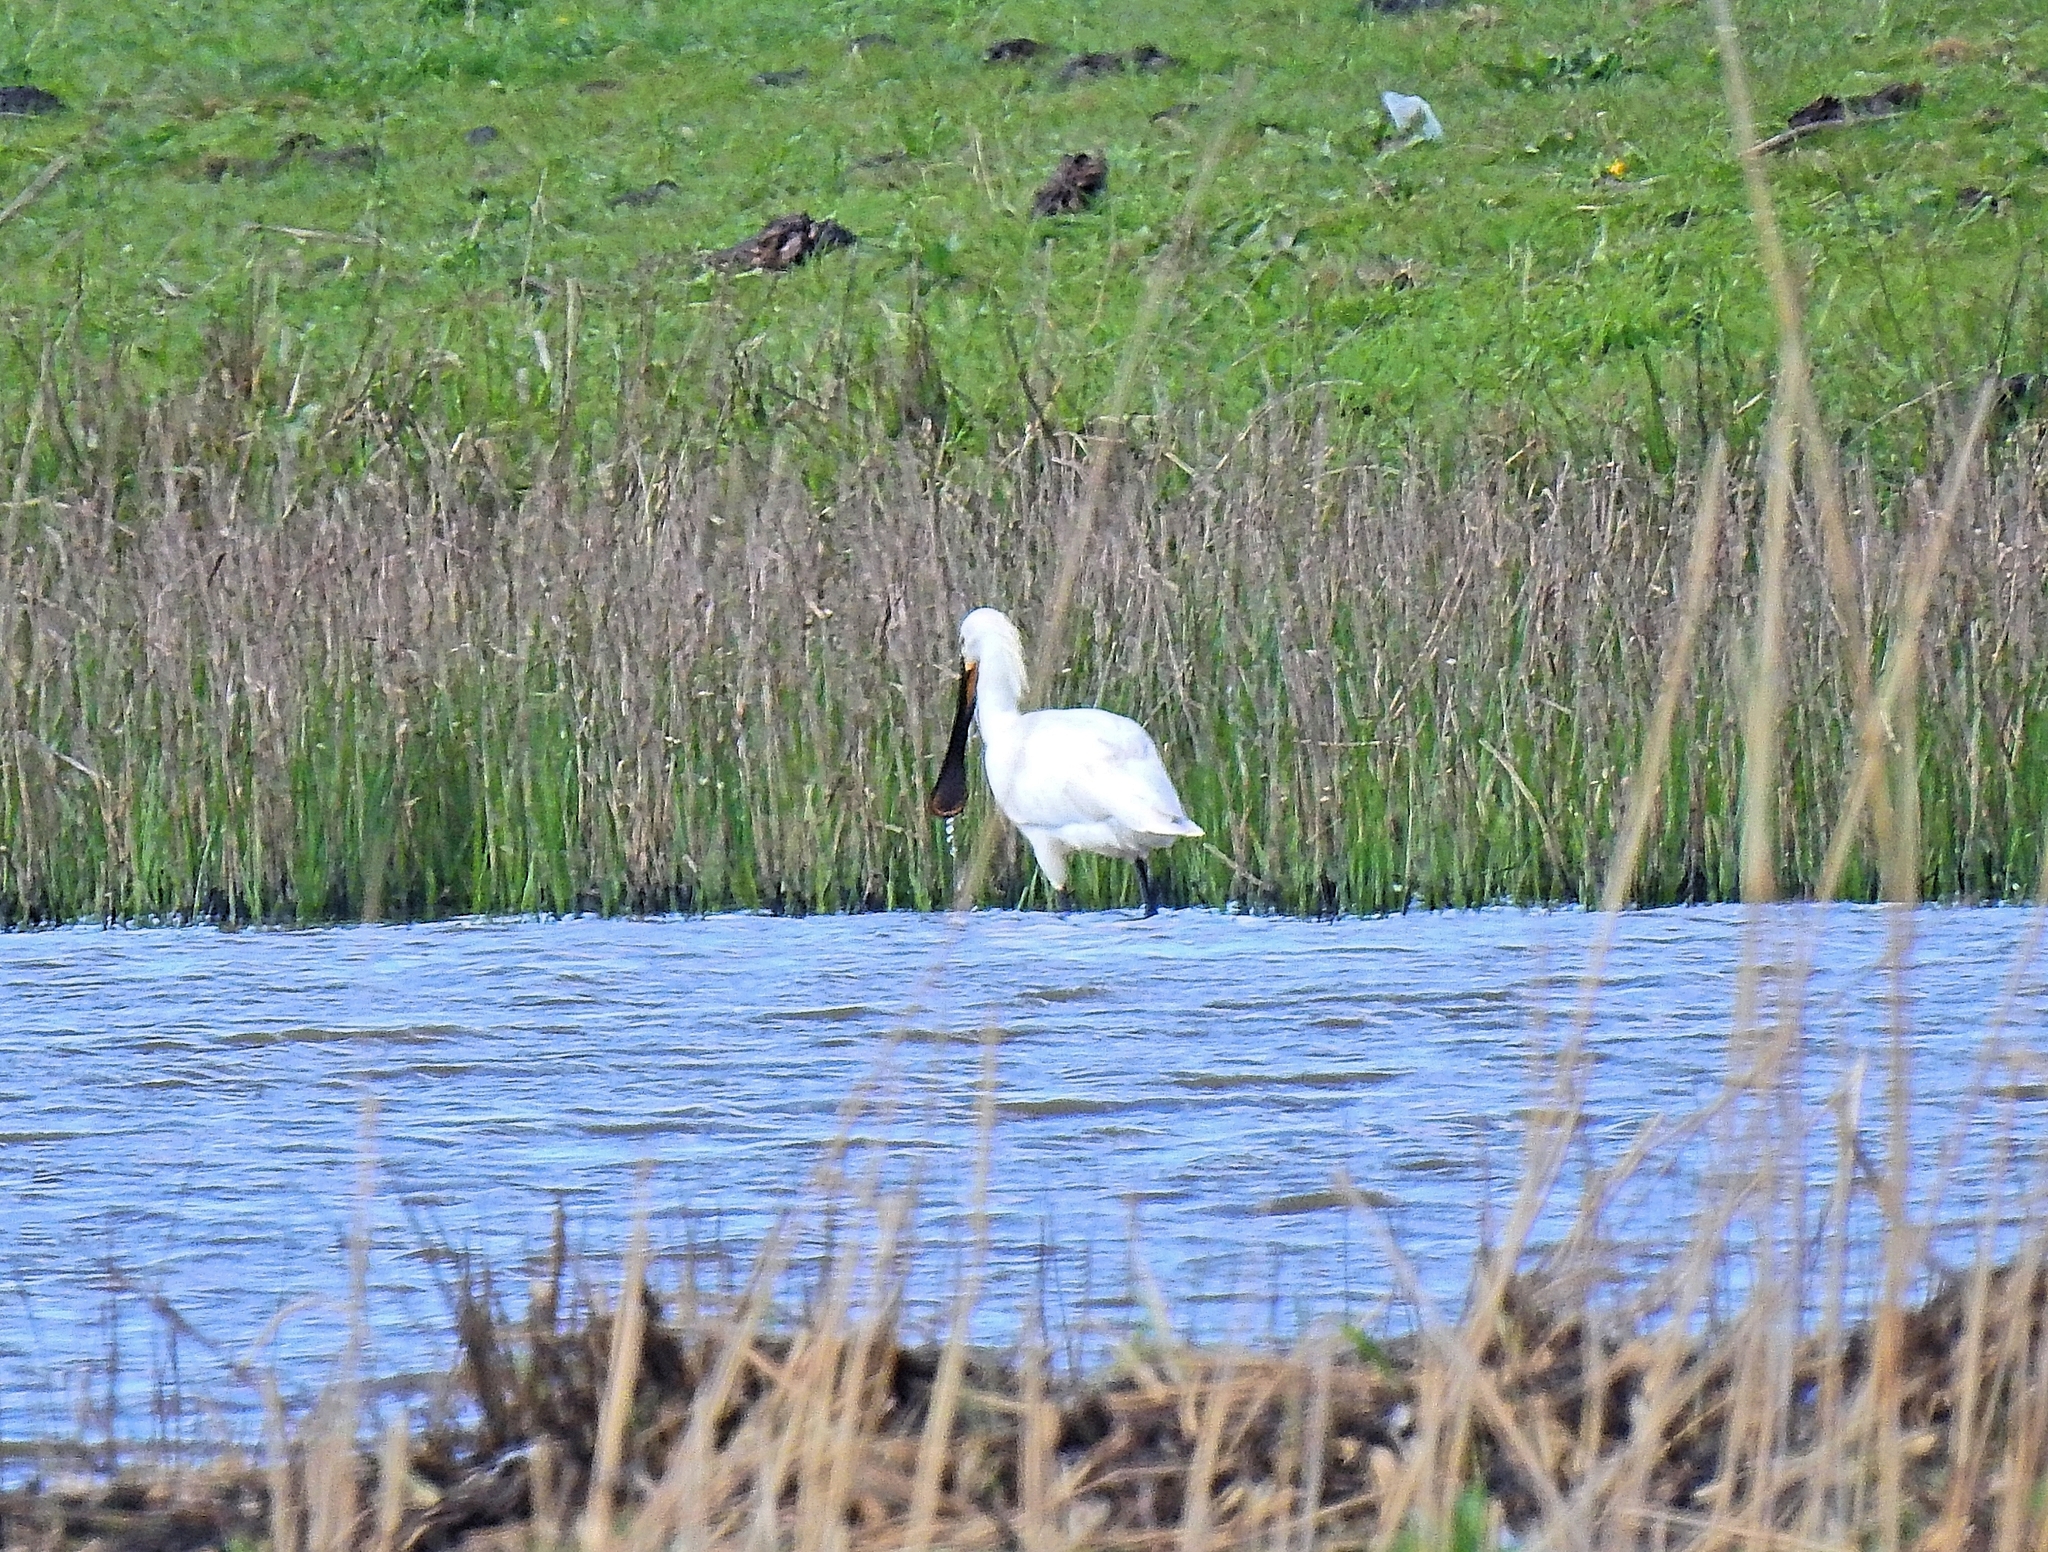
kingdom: Animalia
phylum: Chordata
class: Aves
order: Pelecaniformes
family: Threskiornithidae
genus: Platalea
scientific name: Platalea leucorodia
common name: Eurasian spoonbill
